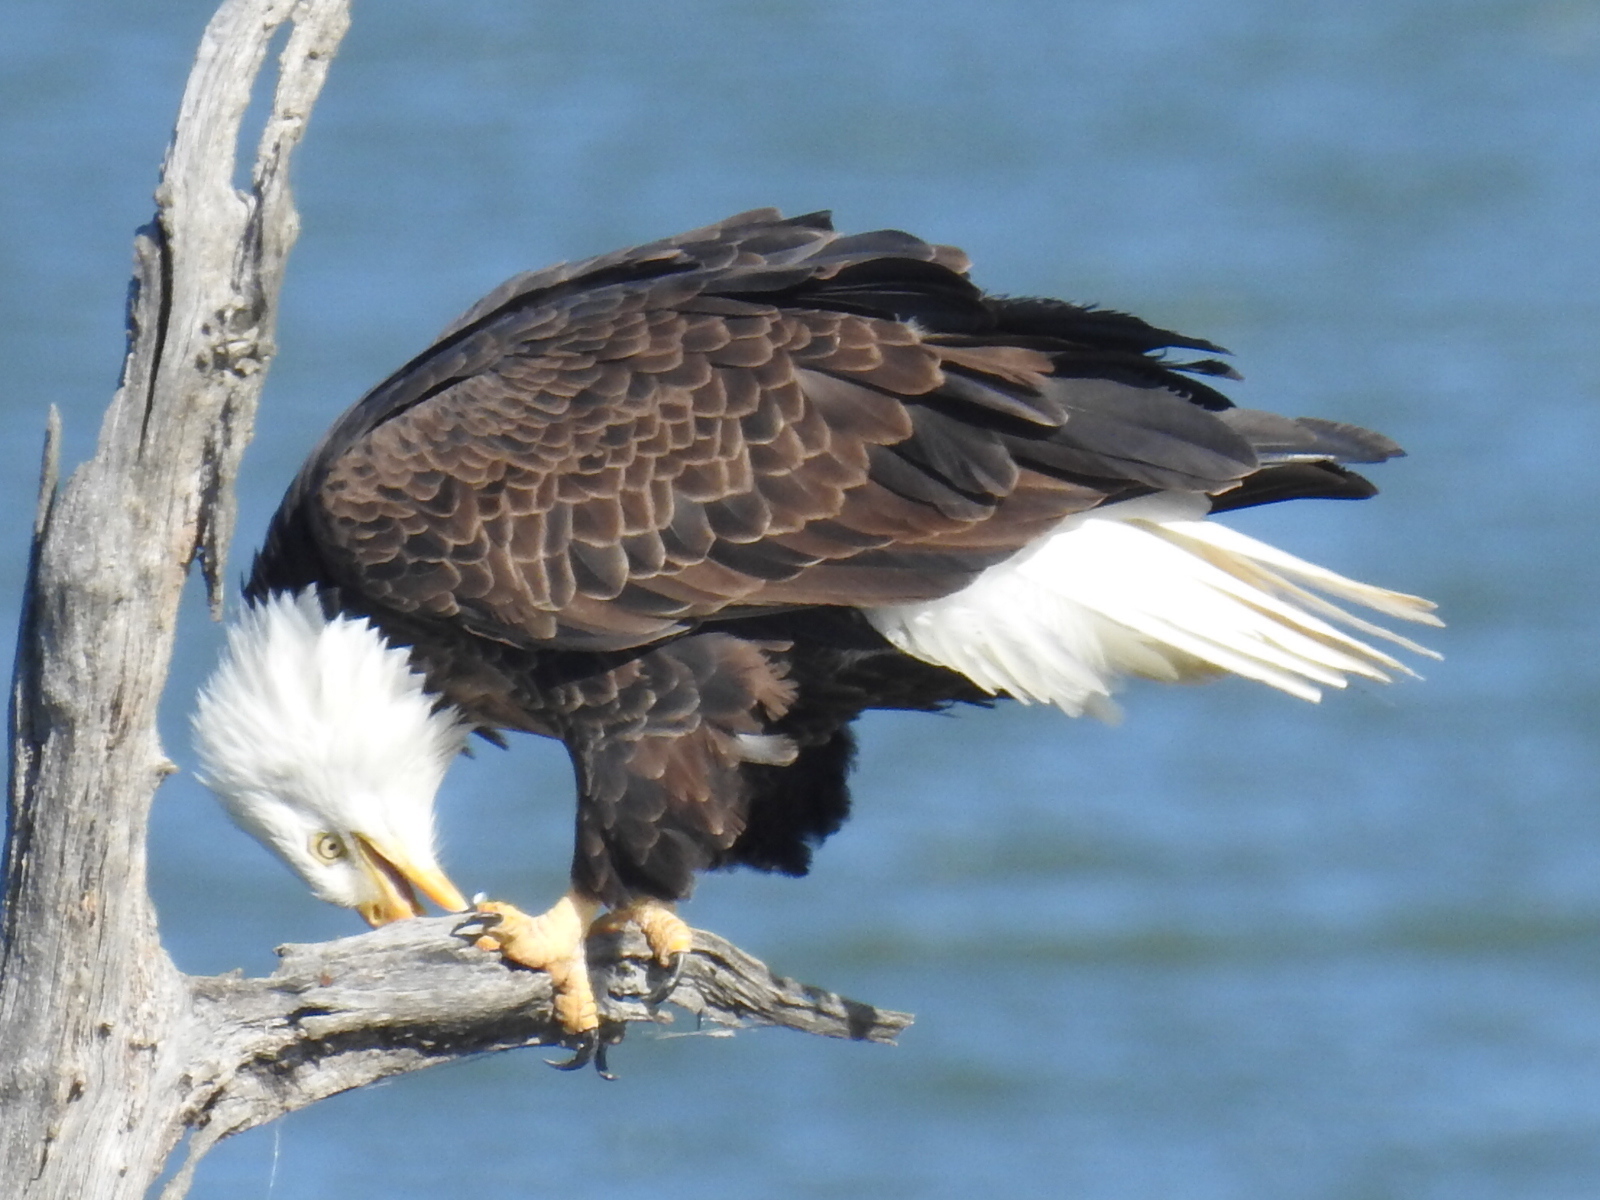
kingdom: Animalia
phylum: Chordata
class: Aves
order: Accipitriformes
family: Accipitridae
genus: Haliaeetus
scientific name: Haliaeetus leucocephalus
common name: Bald eagle
